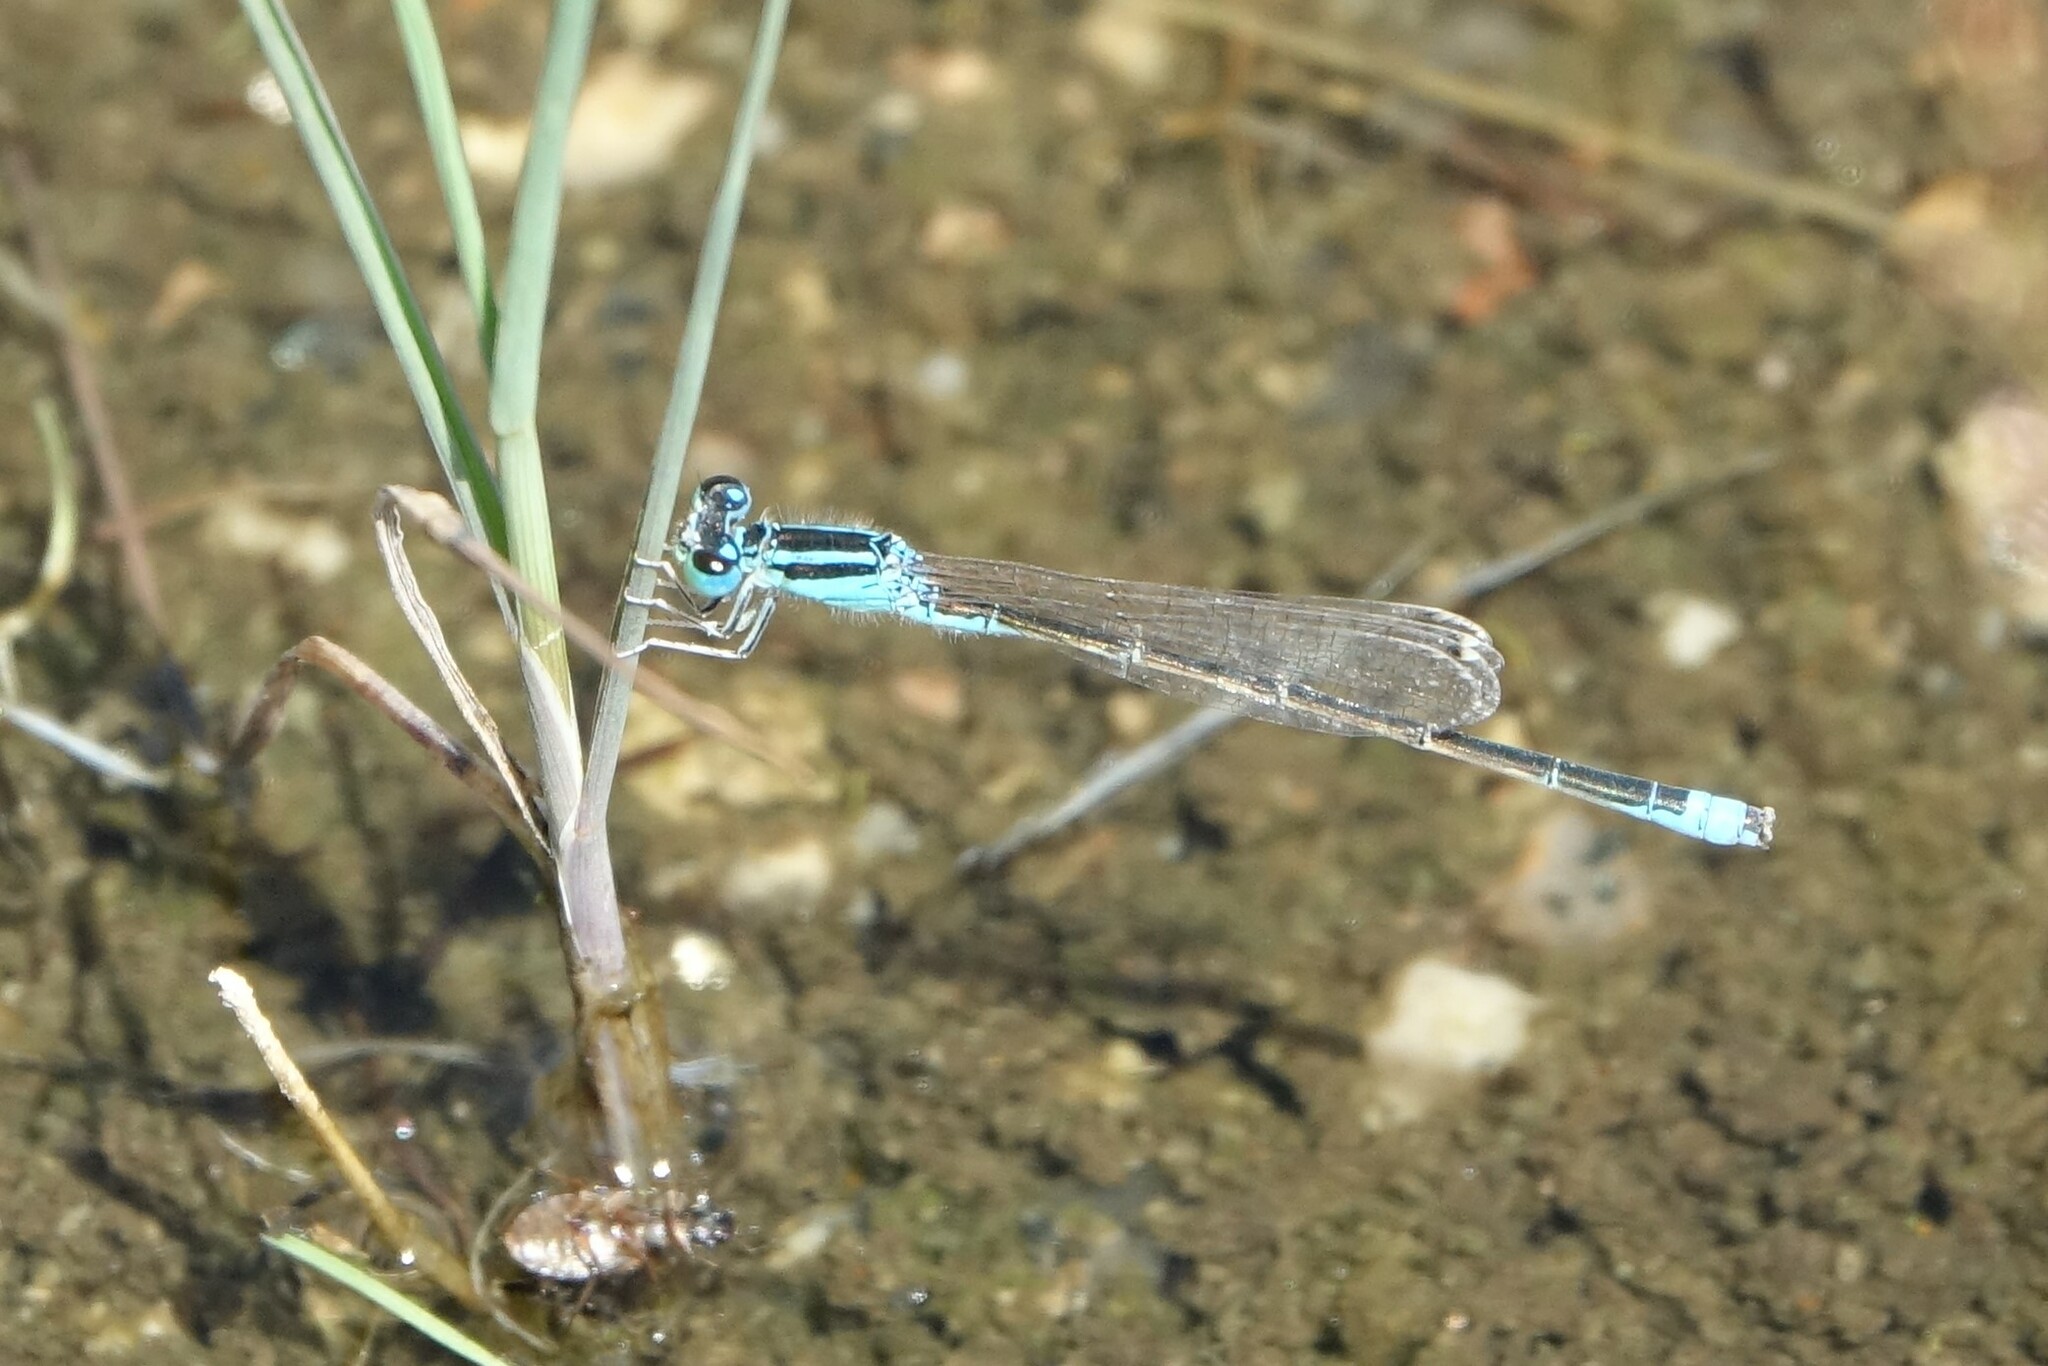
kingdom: Animalia
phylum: Arthropoda
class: Insecta
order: Odonata
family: Coenagrionidae
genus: Ischnura
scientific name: Ischnura pumilio
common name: Scarce blue-tailed damselfly
